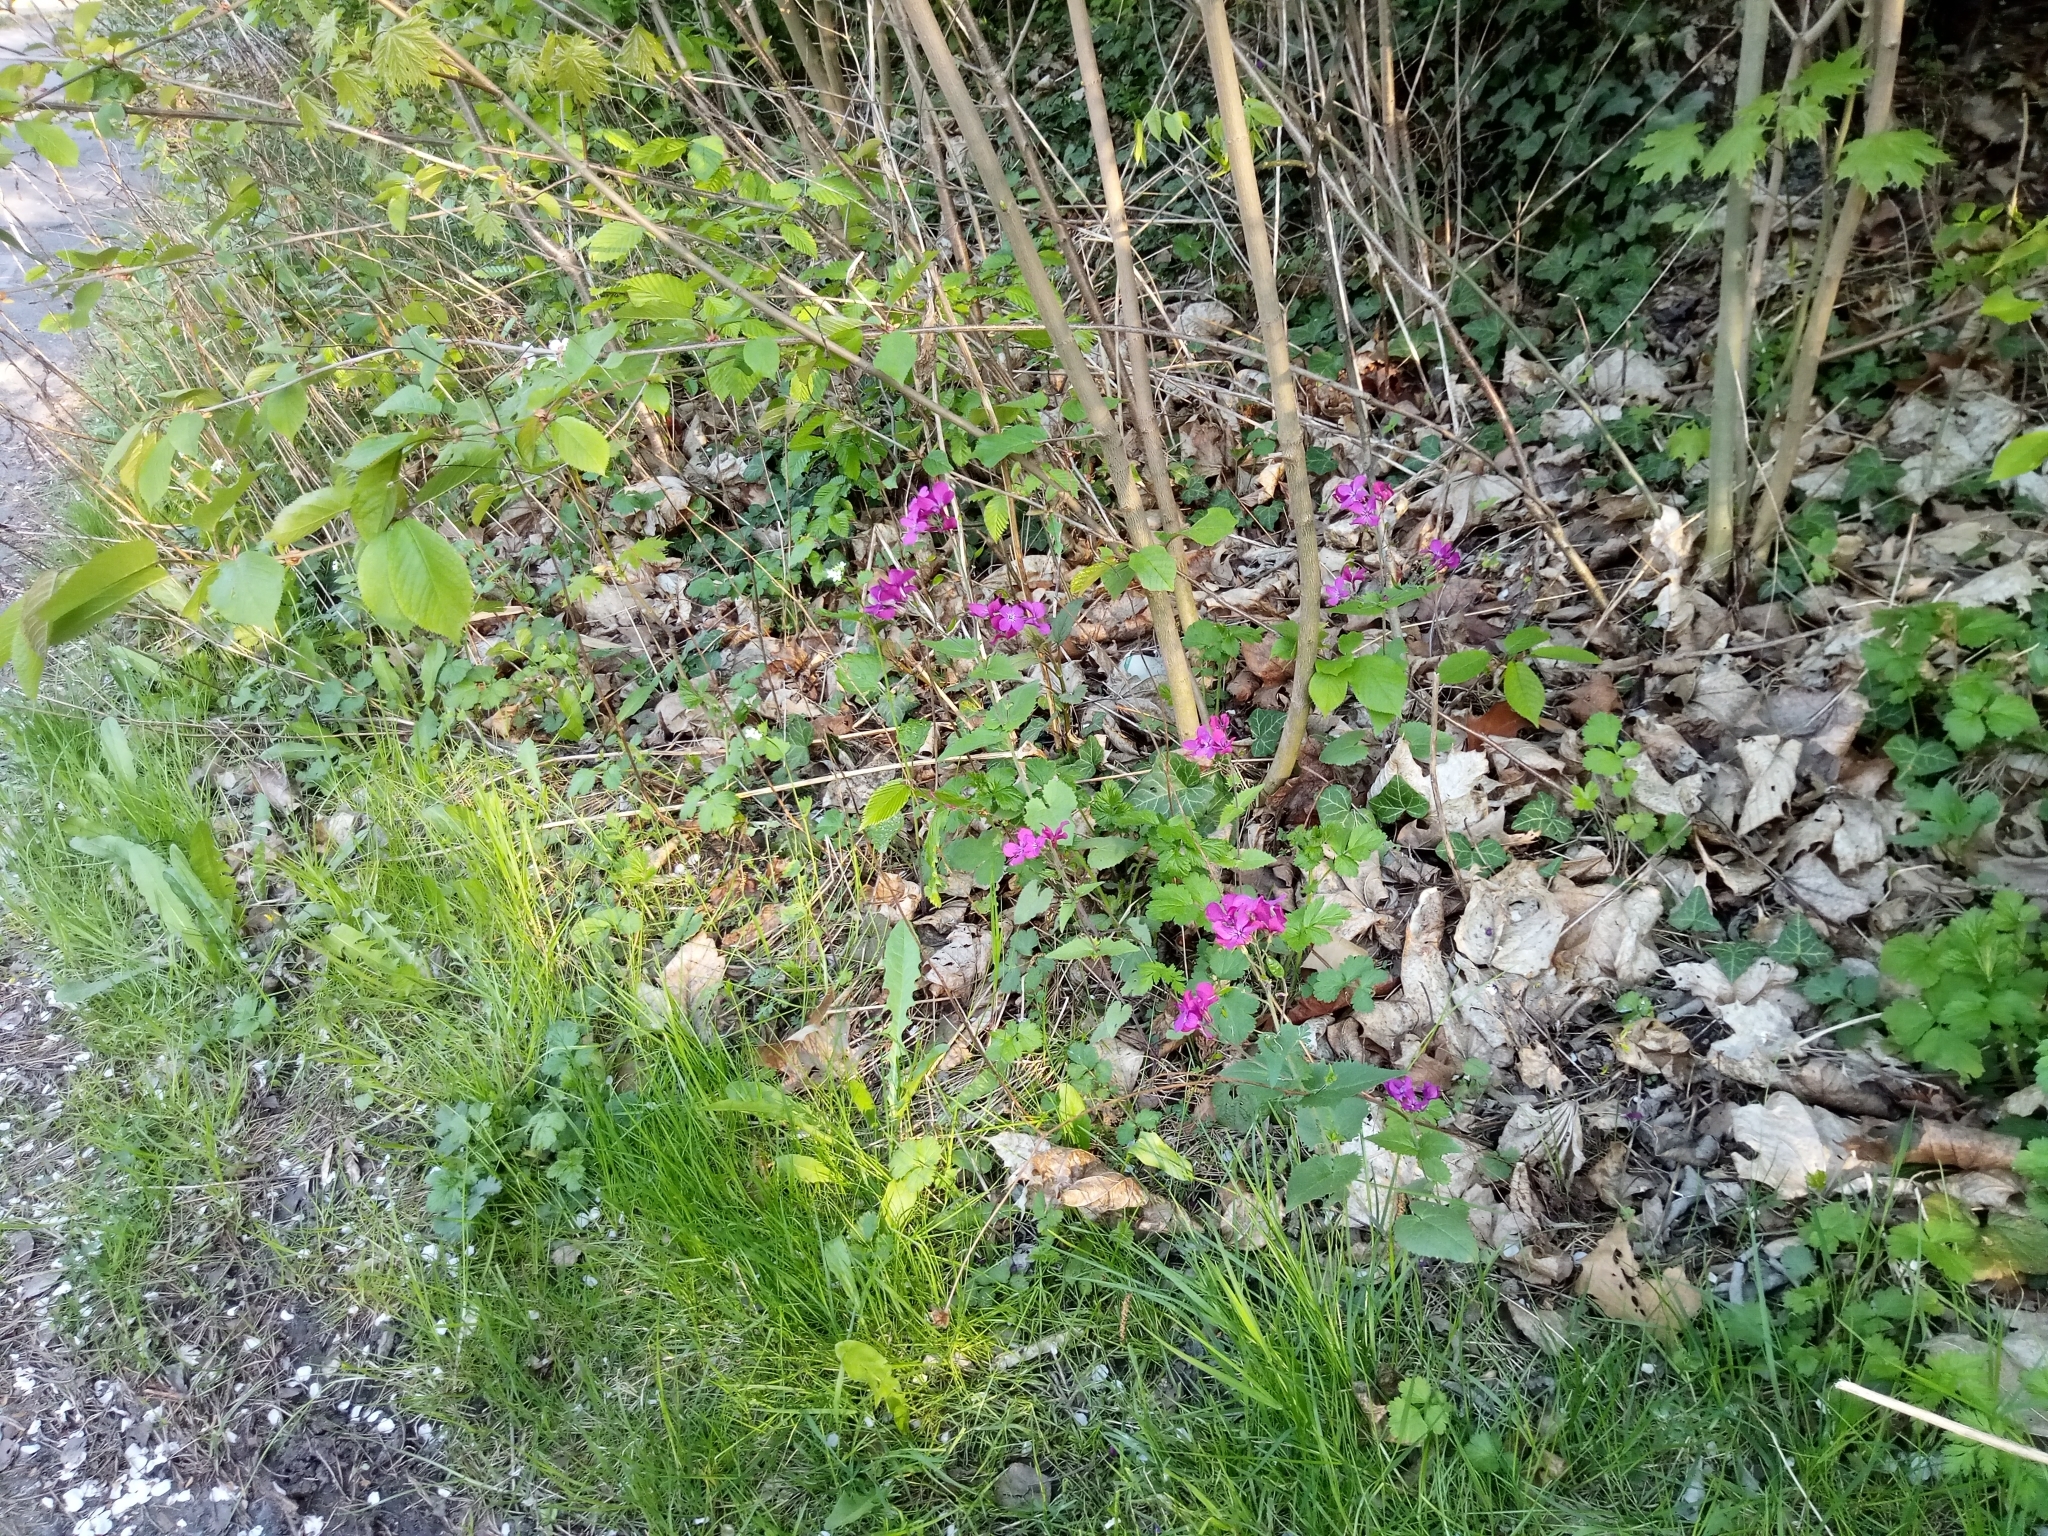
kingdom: Plantae
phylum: Tracheophyta
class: Magnoliopsida
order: Brassicales
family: Brassicaceae
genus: Lunaria
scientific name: Lunaria annua
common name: Honesty
